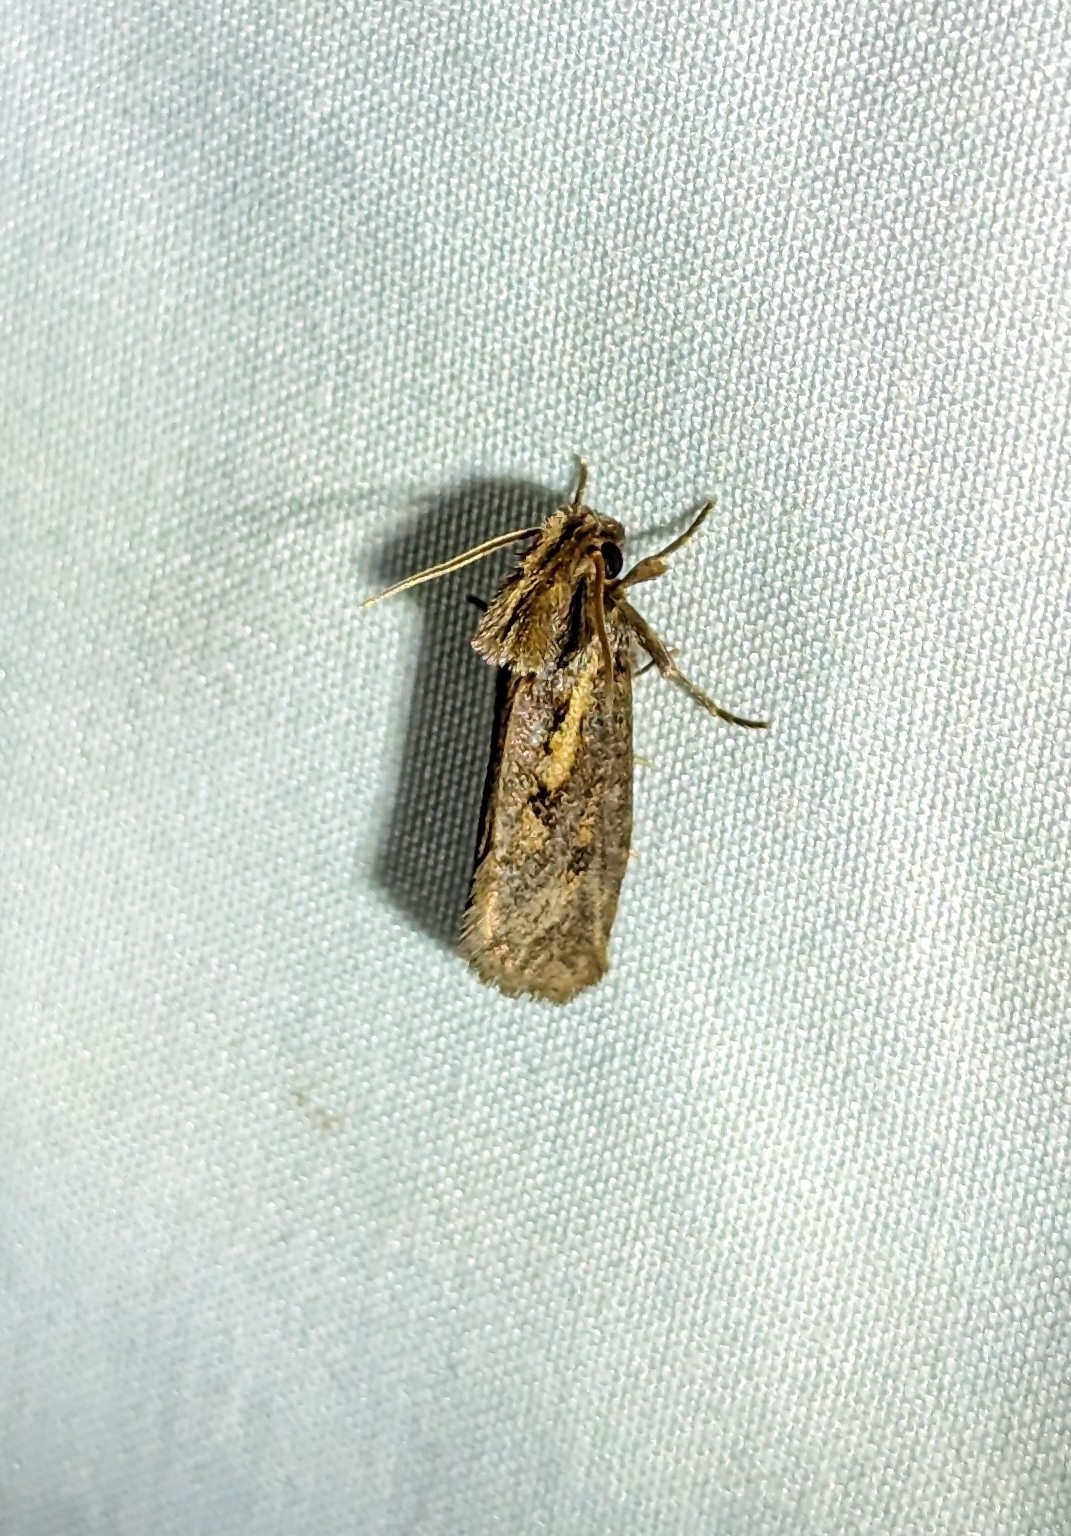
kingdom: Animalia
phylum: Arthropoda
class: Insecta
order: Lepidoptera
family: Tineidae
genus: Acrolophus
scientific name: Acrolophus popeanella
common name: Clemens' grass tubeworm moth
